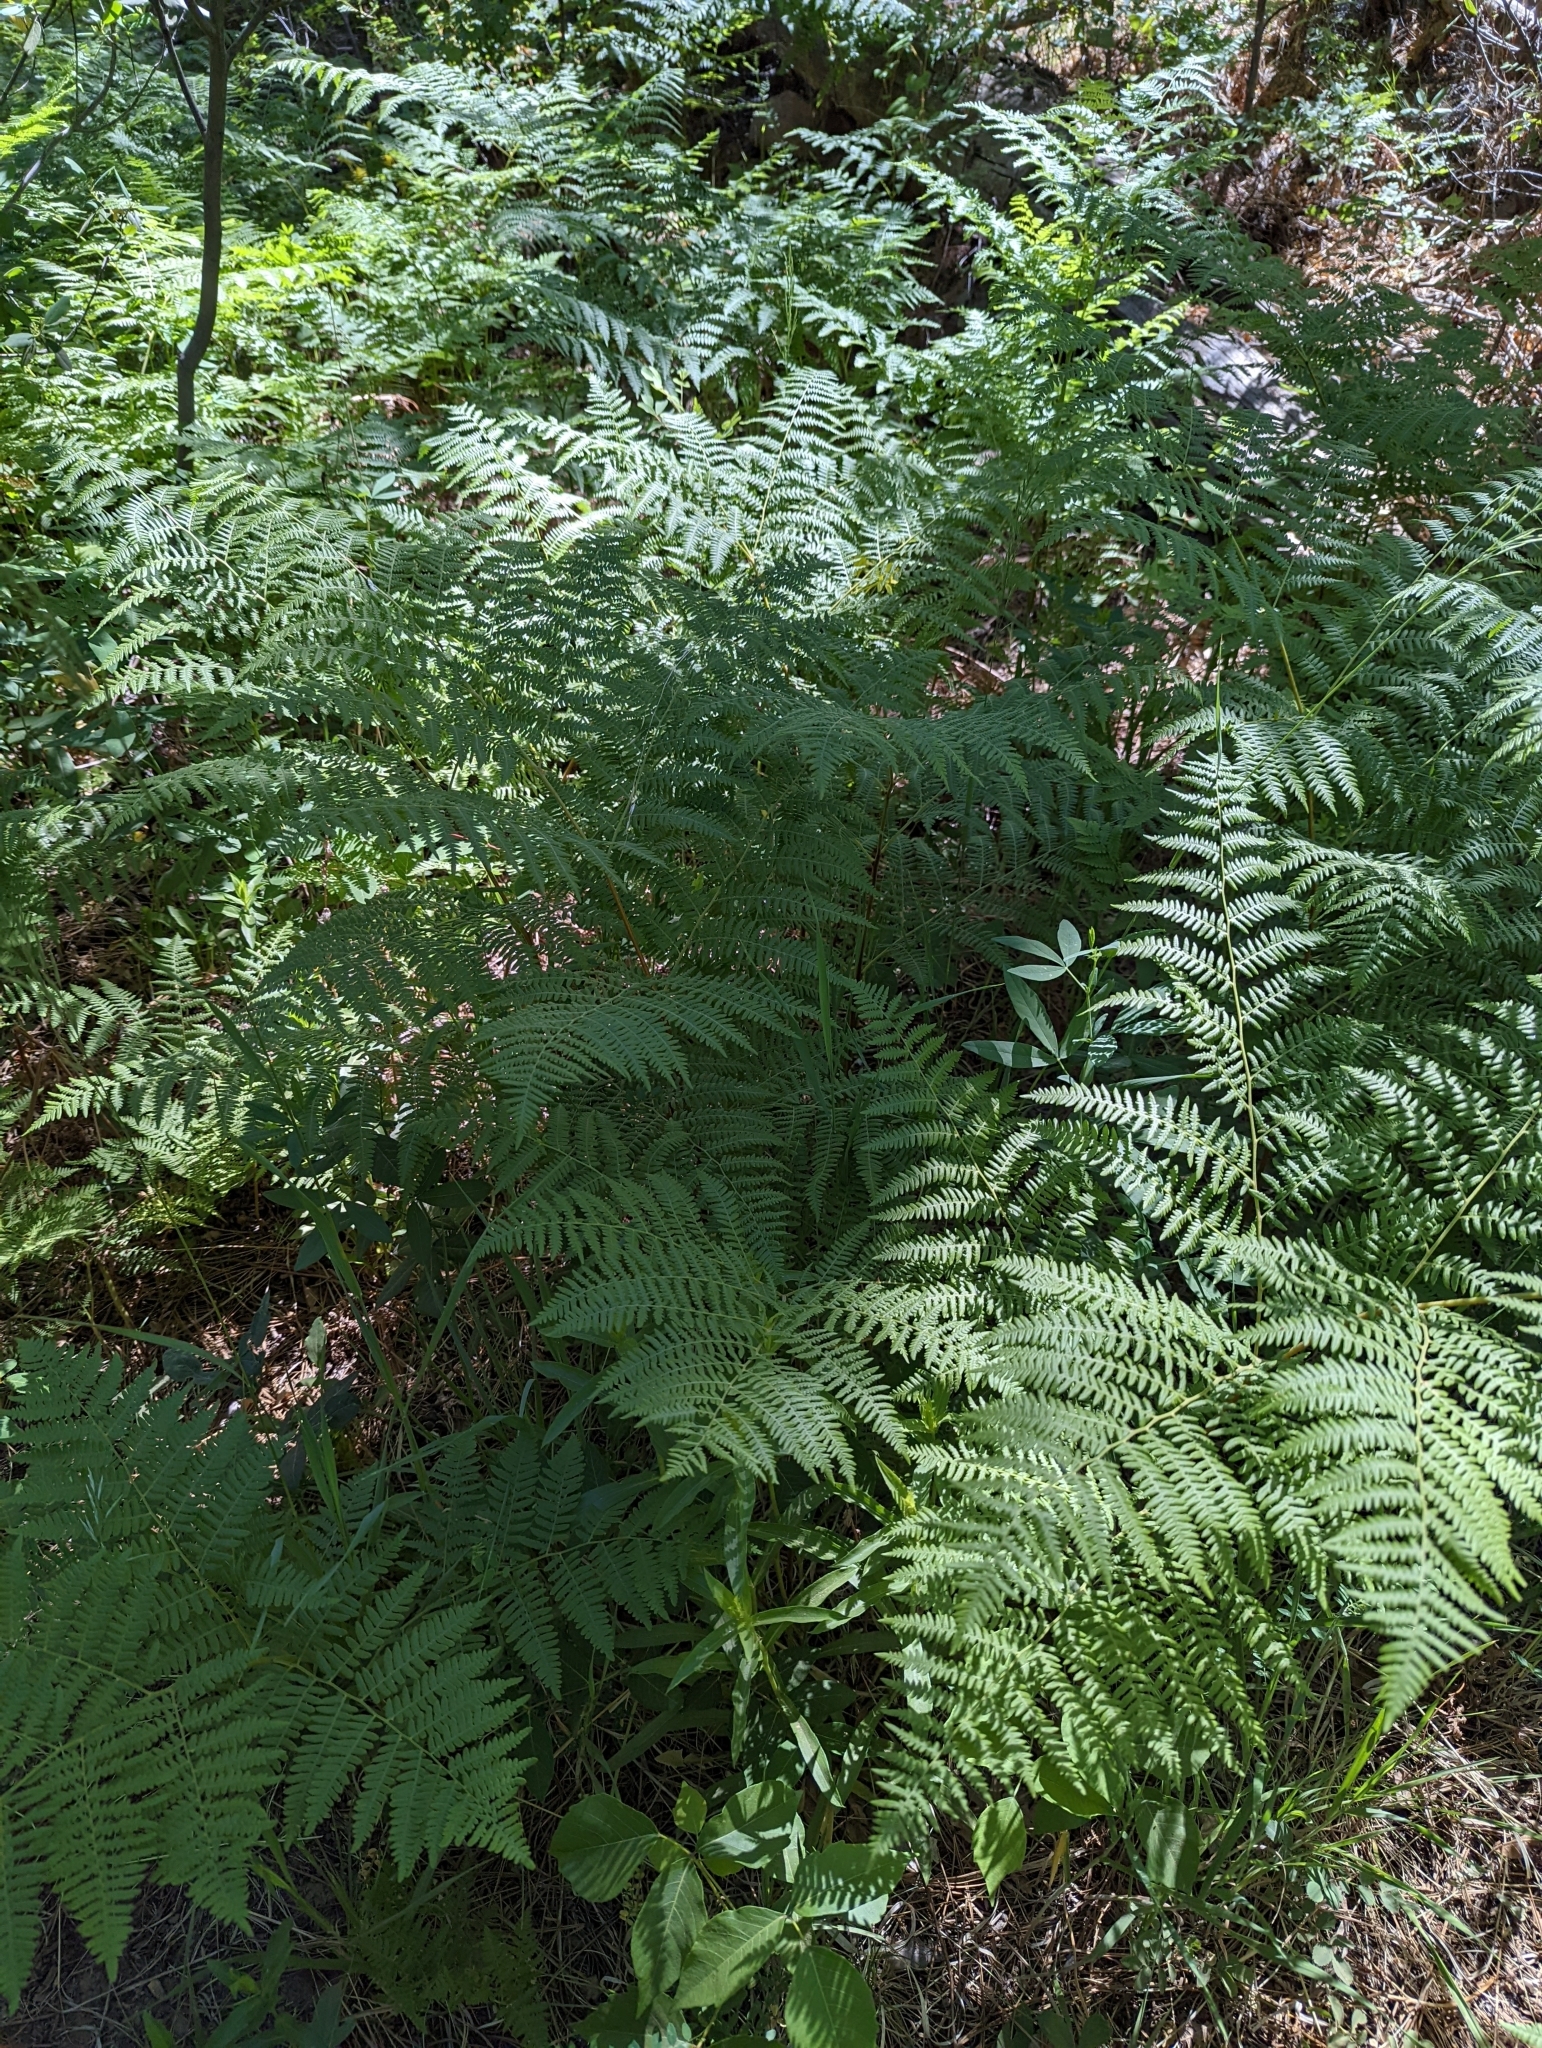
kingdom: Plantae
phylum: Tracheophyta
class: Polypodiopsida
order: Polypodiales
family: Dennstaedtiaceae
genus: Pteridium
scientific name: Pteridium aquilinum
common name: Bracken
